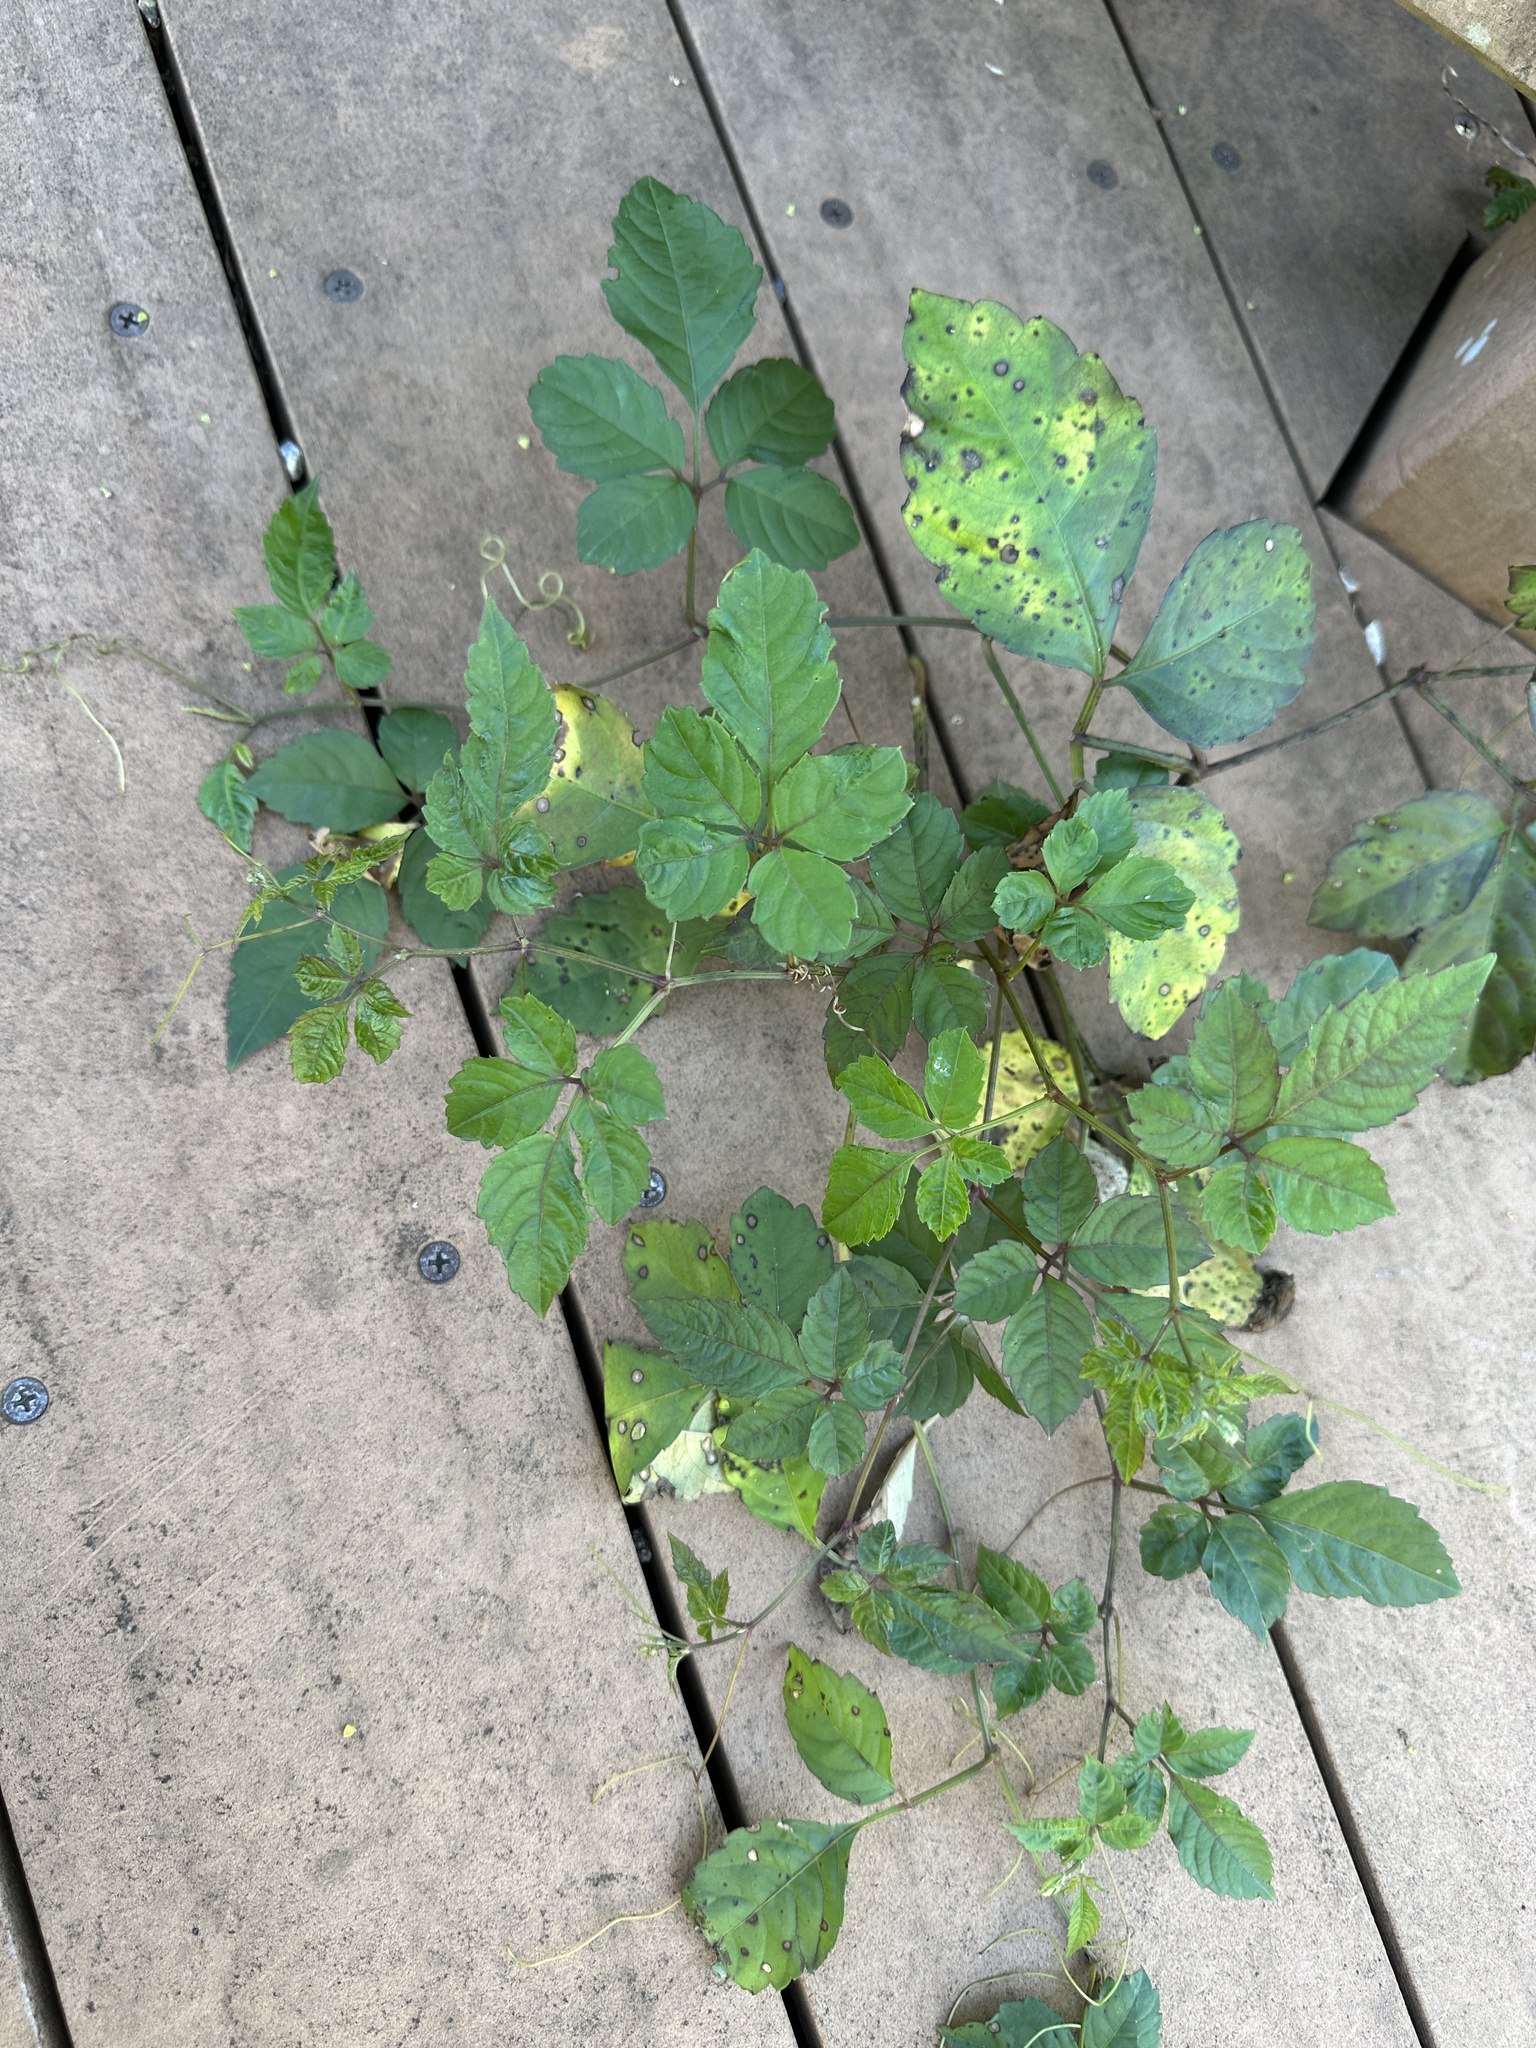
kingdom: Plantae
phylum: Tracheophyta
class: Magnoliopsida
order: Vitales
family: Vitaceae
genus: Causonis
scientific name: Causonis japonica
